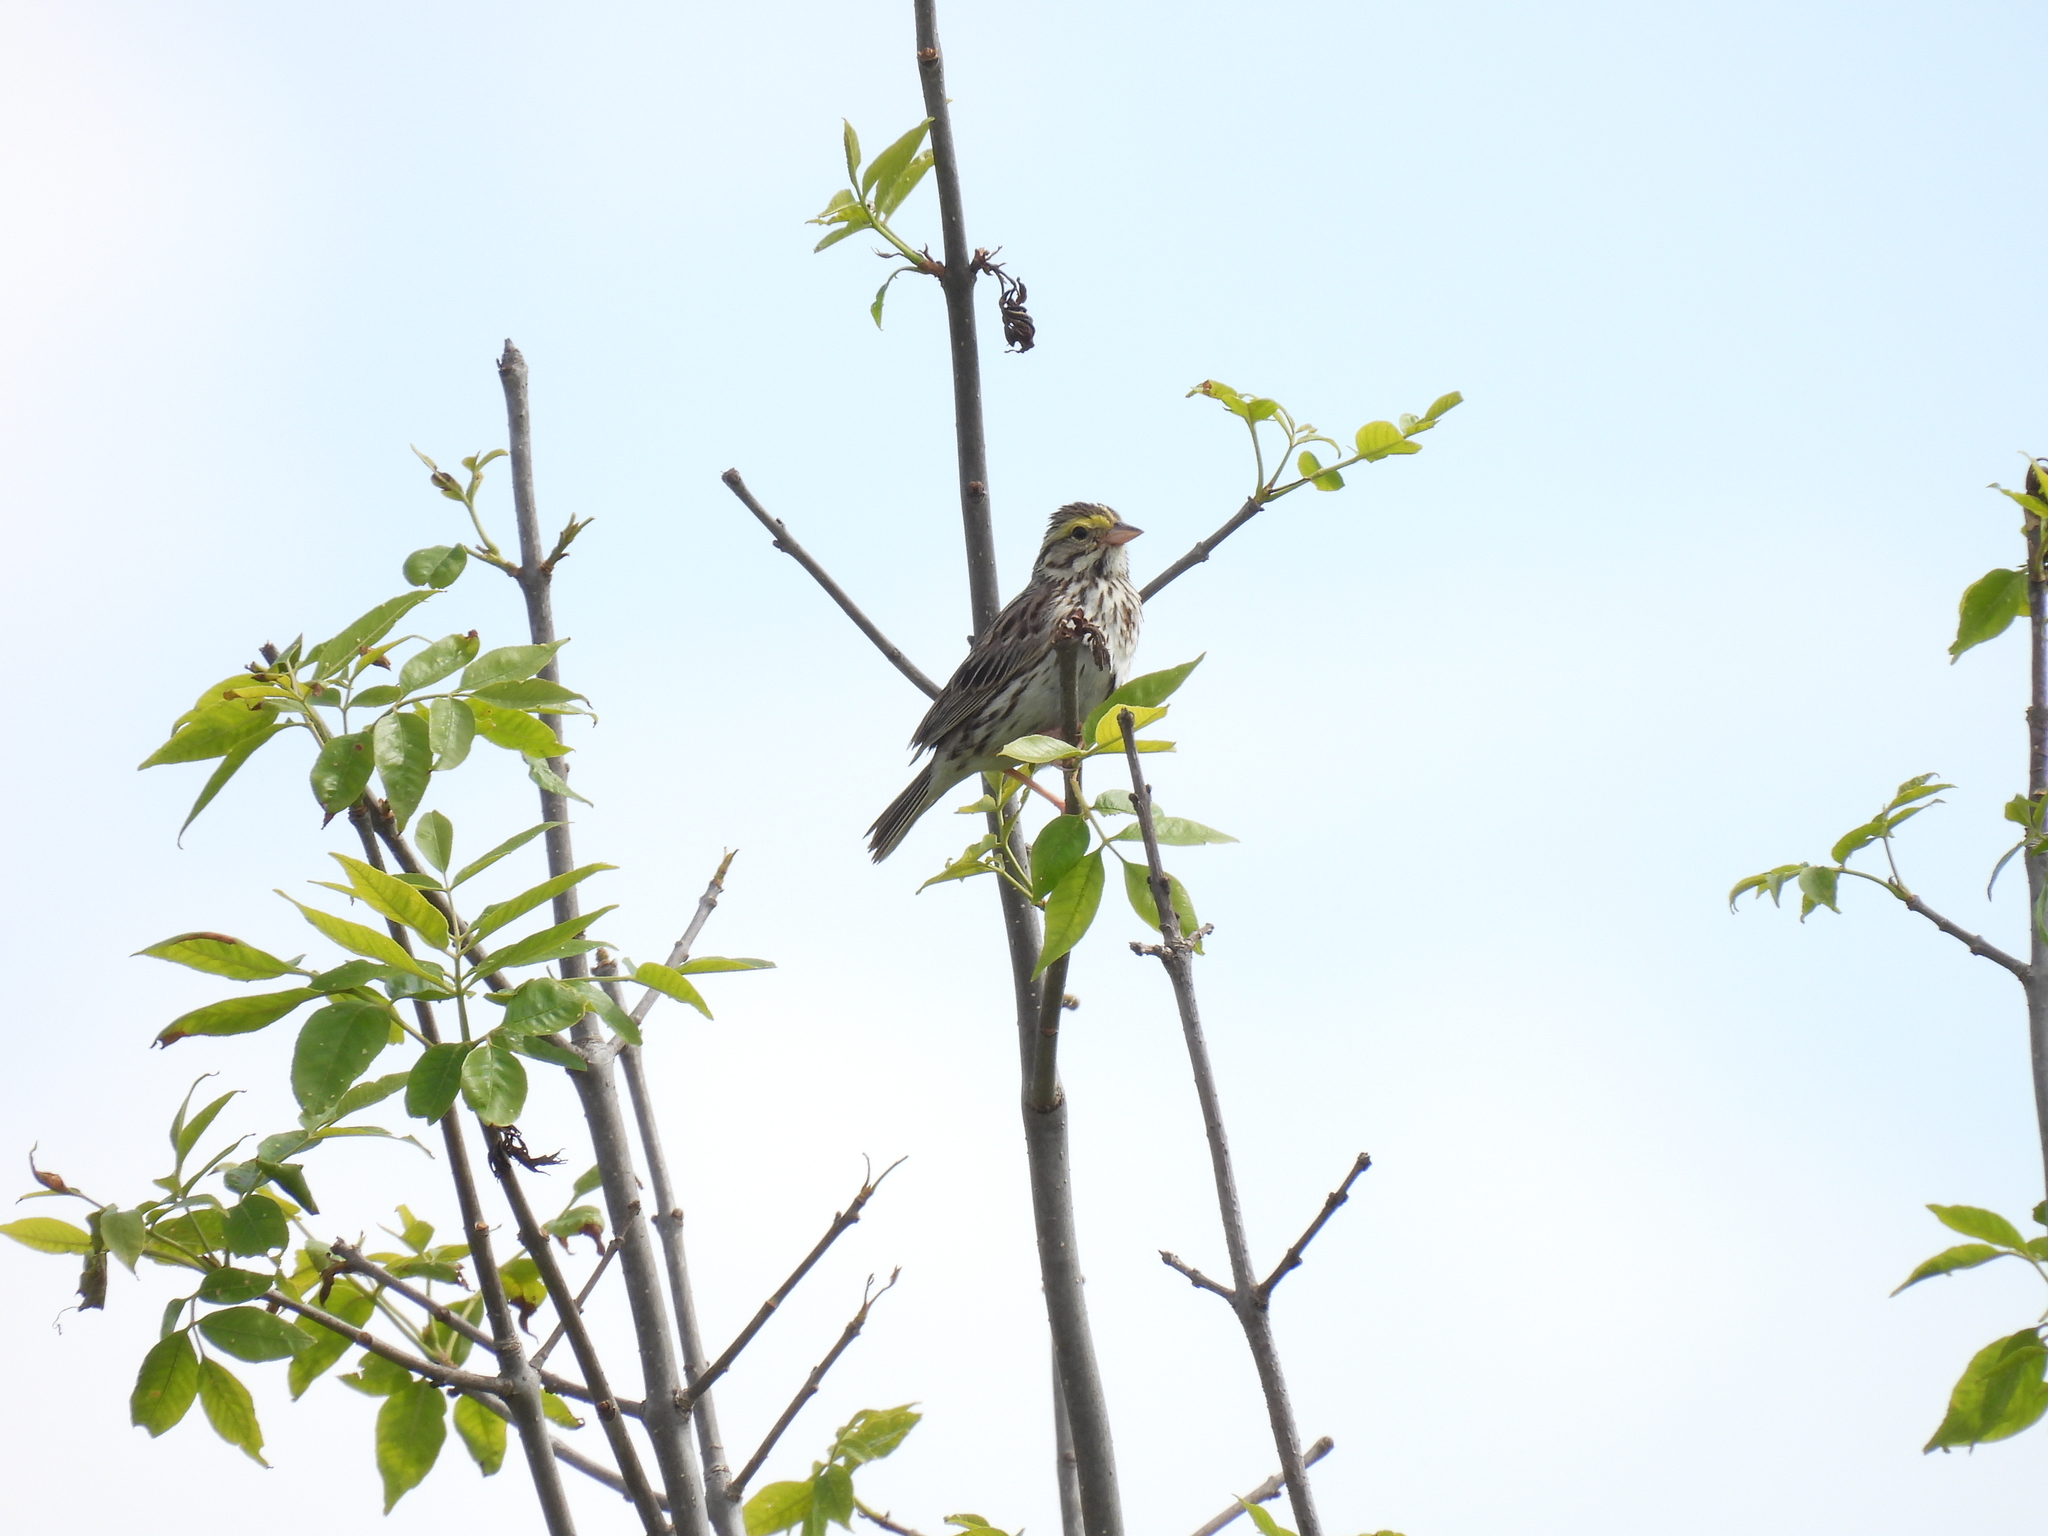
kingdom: Animalia
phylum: Chordata
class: Aves
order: Passeriformes
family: Passerellidae
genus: Passerculus
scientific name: Passerculus sandwichensis
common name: Savannah sparrow
